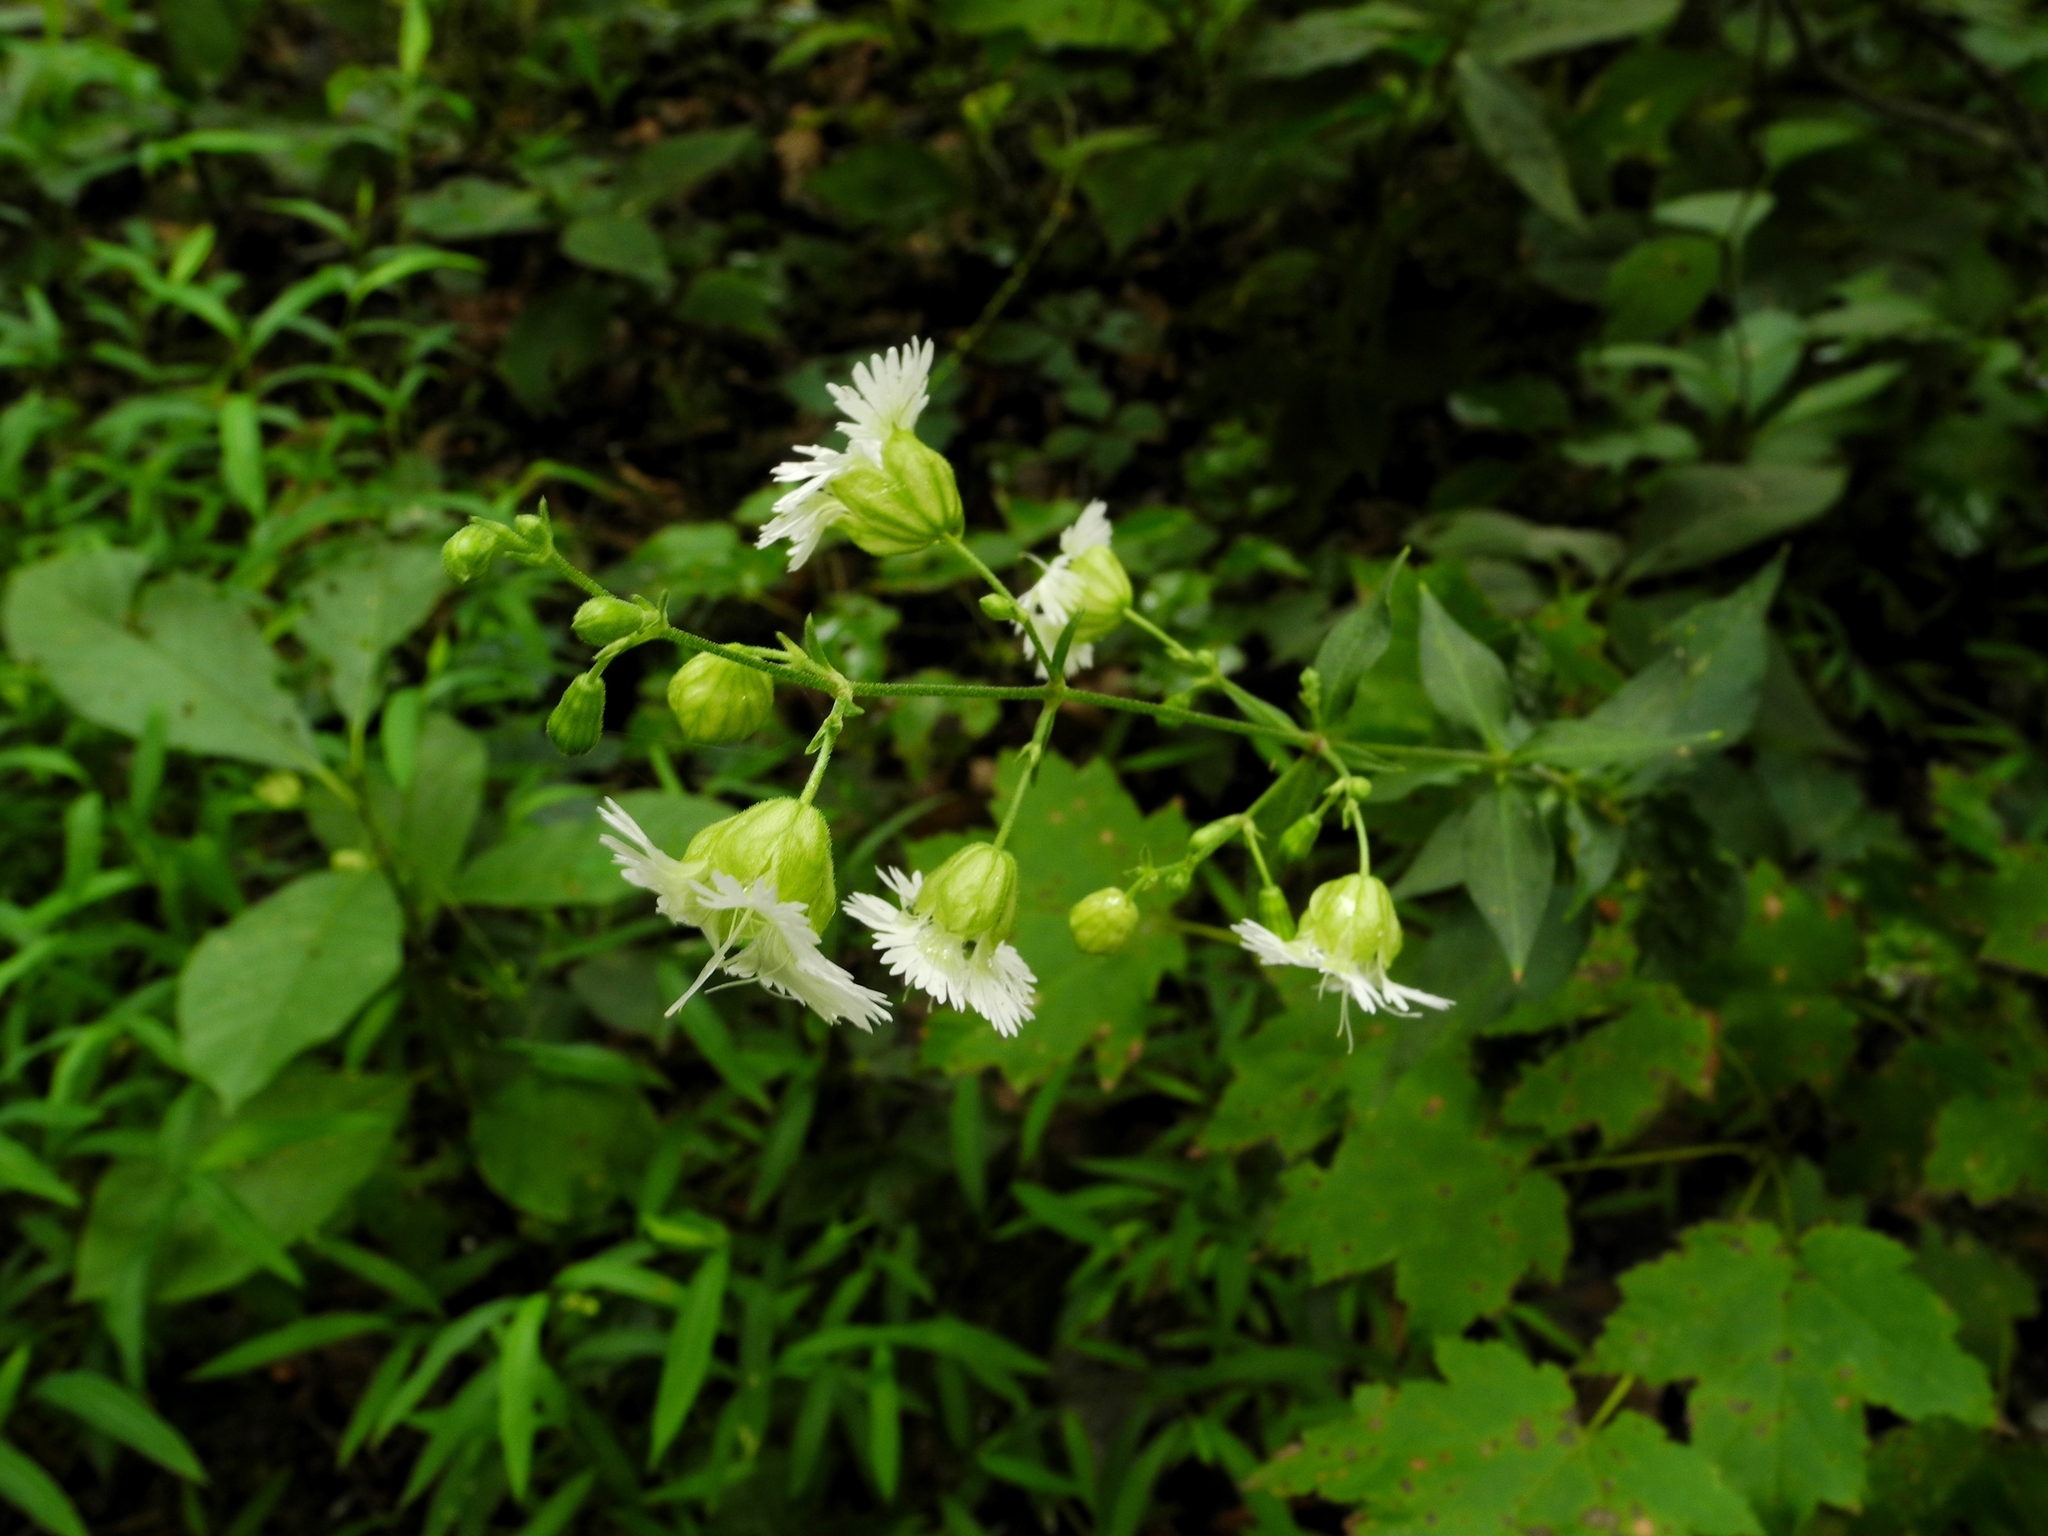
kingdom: Plantae
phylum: Tracheophyta
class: Magnoliopsida
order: Caryophyllales
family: Caryophyllaceae
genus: Silene
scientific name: Silene stellata
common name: Starry campion
